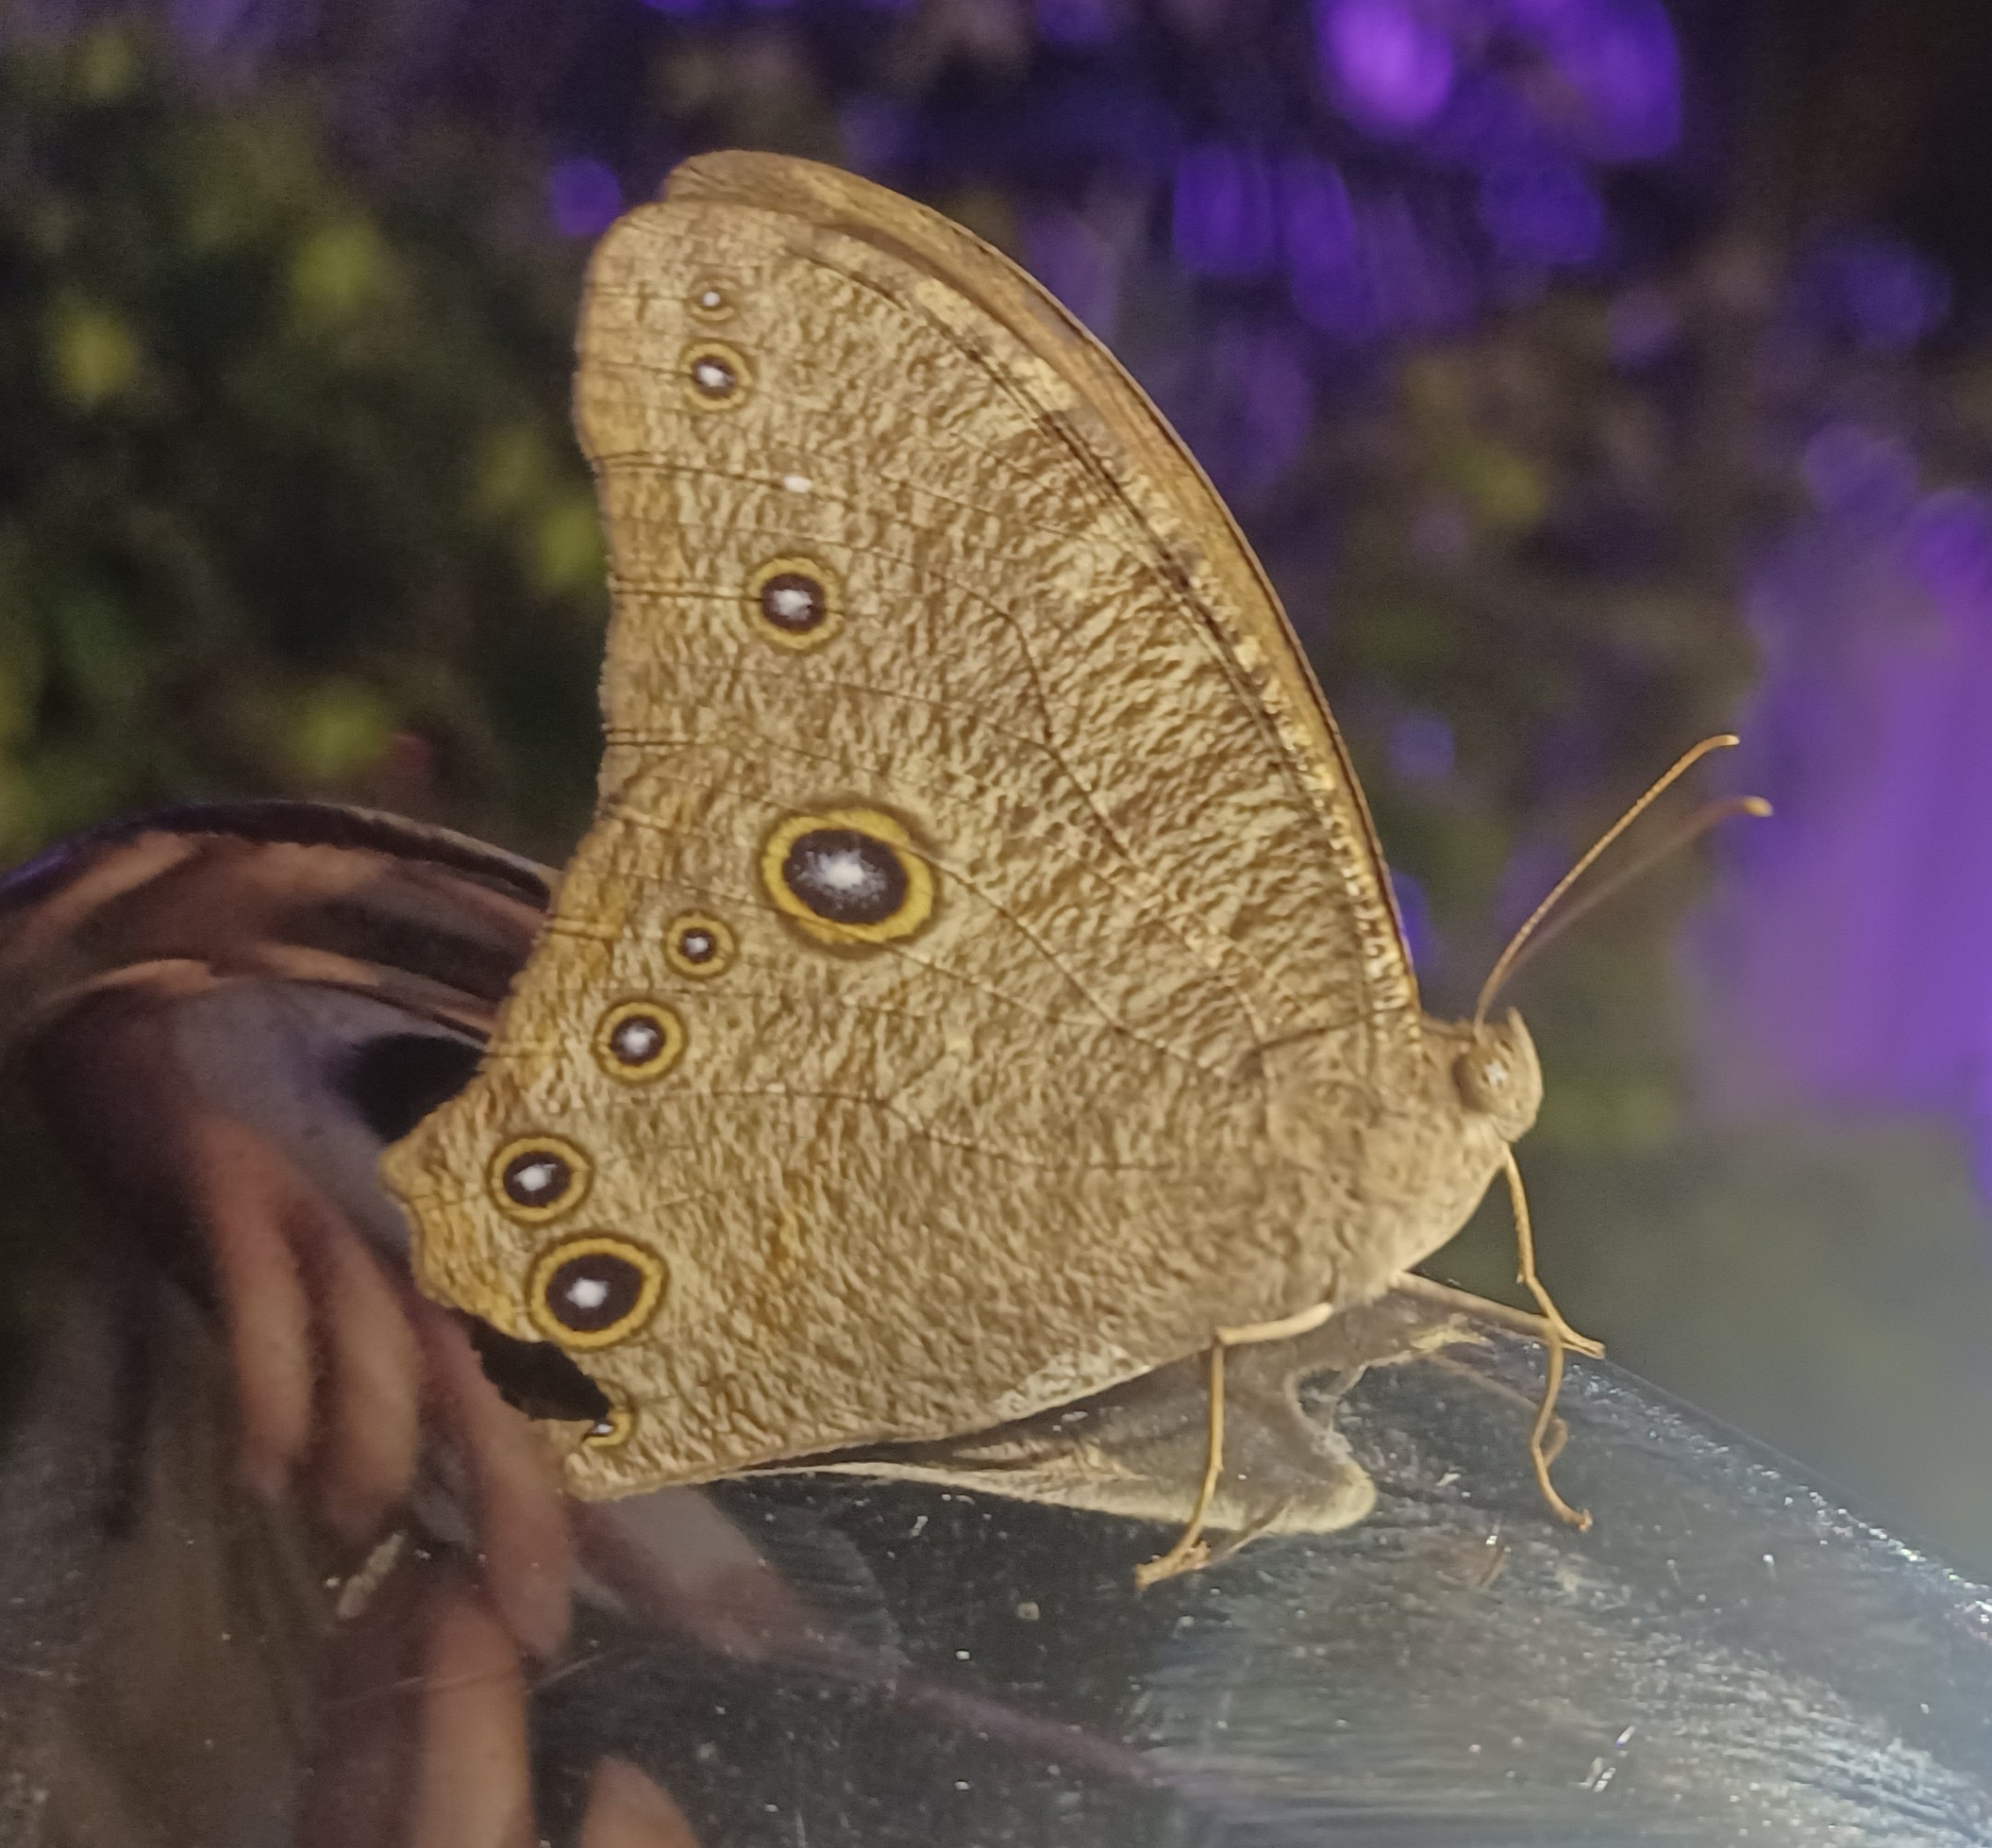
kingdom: Animalia
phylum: Arthropoda
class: Insecta
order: Lepidoptera
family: Nymphalidae
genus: Melanitis
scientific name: Melanitis leda
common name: Twilight brown
